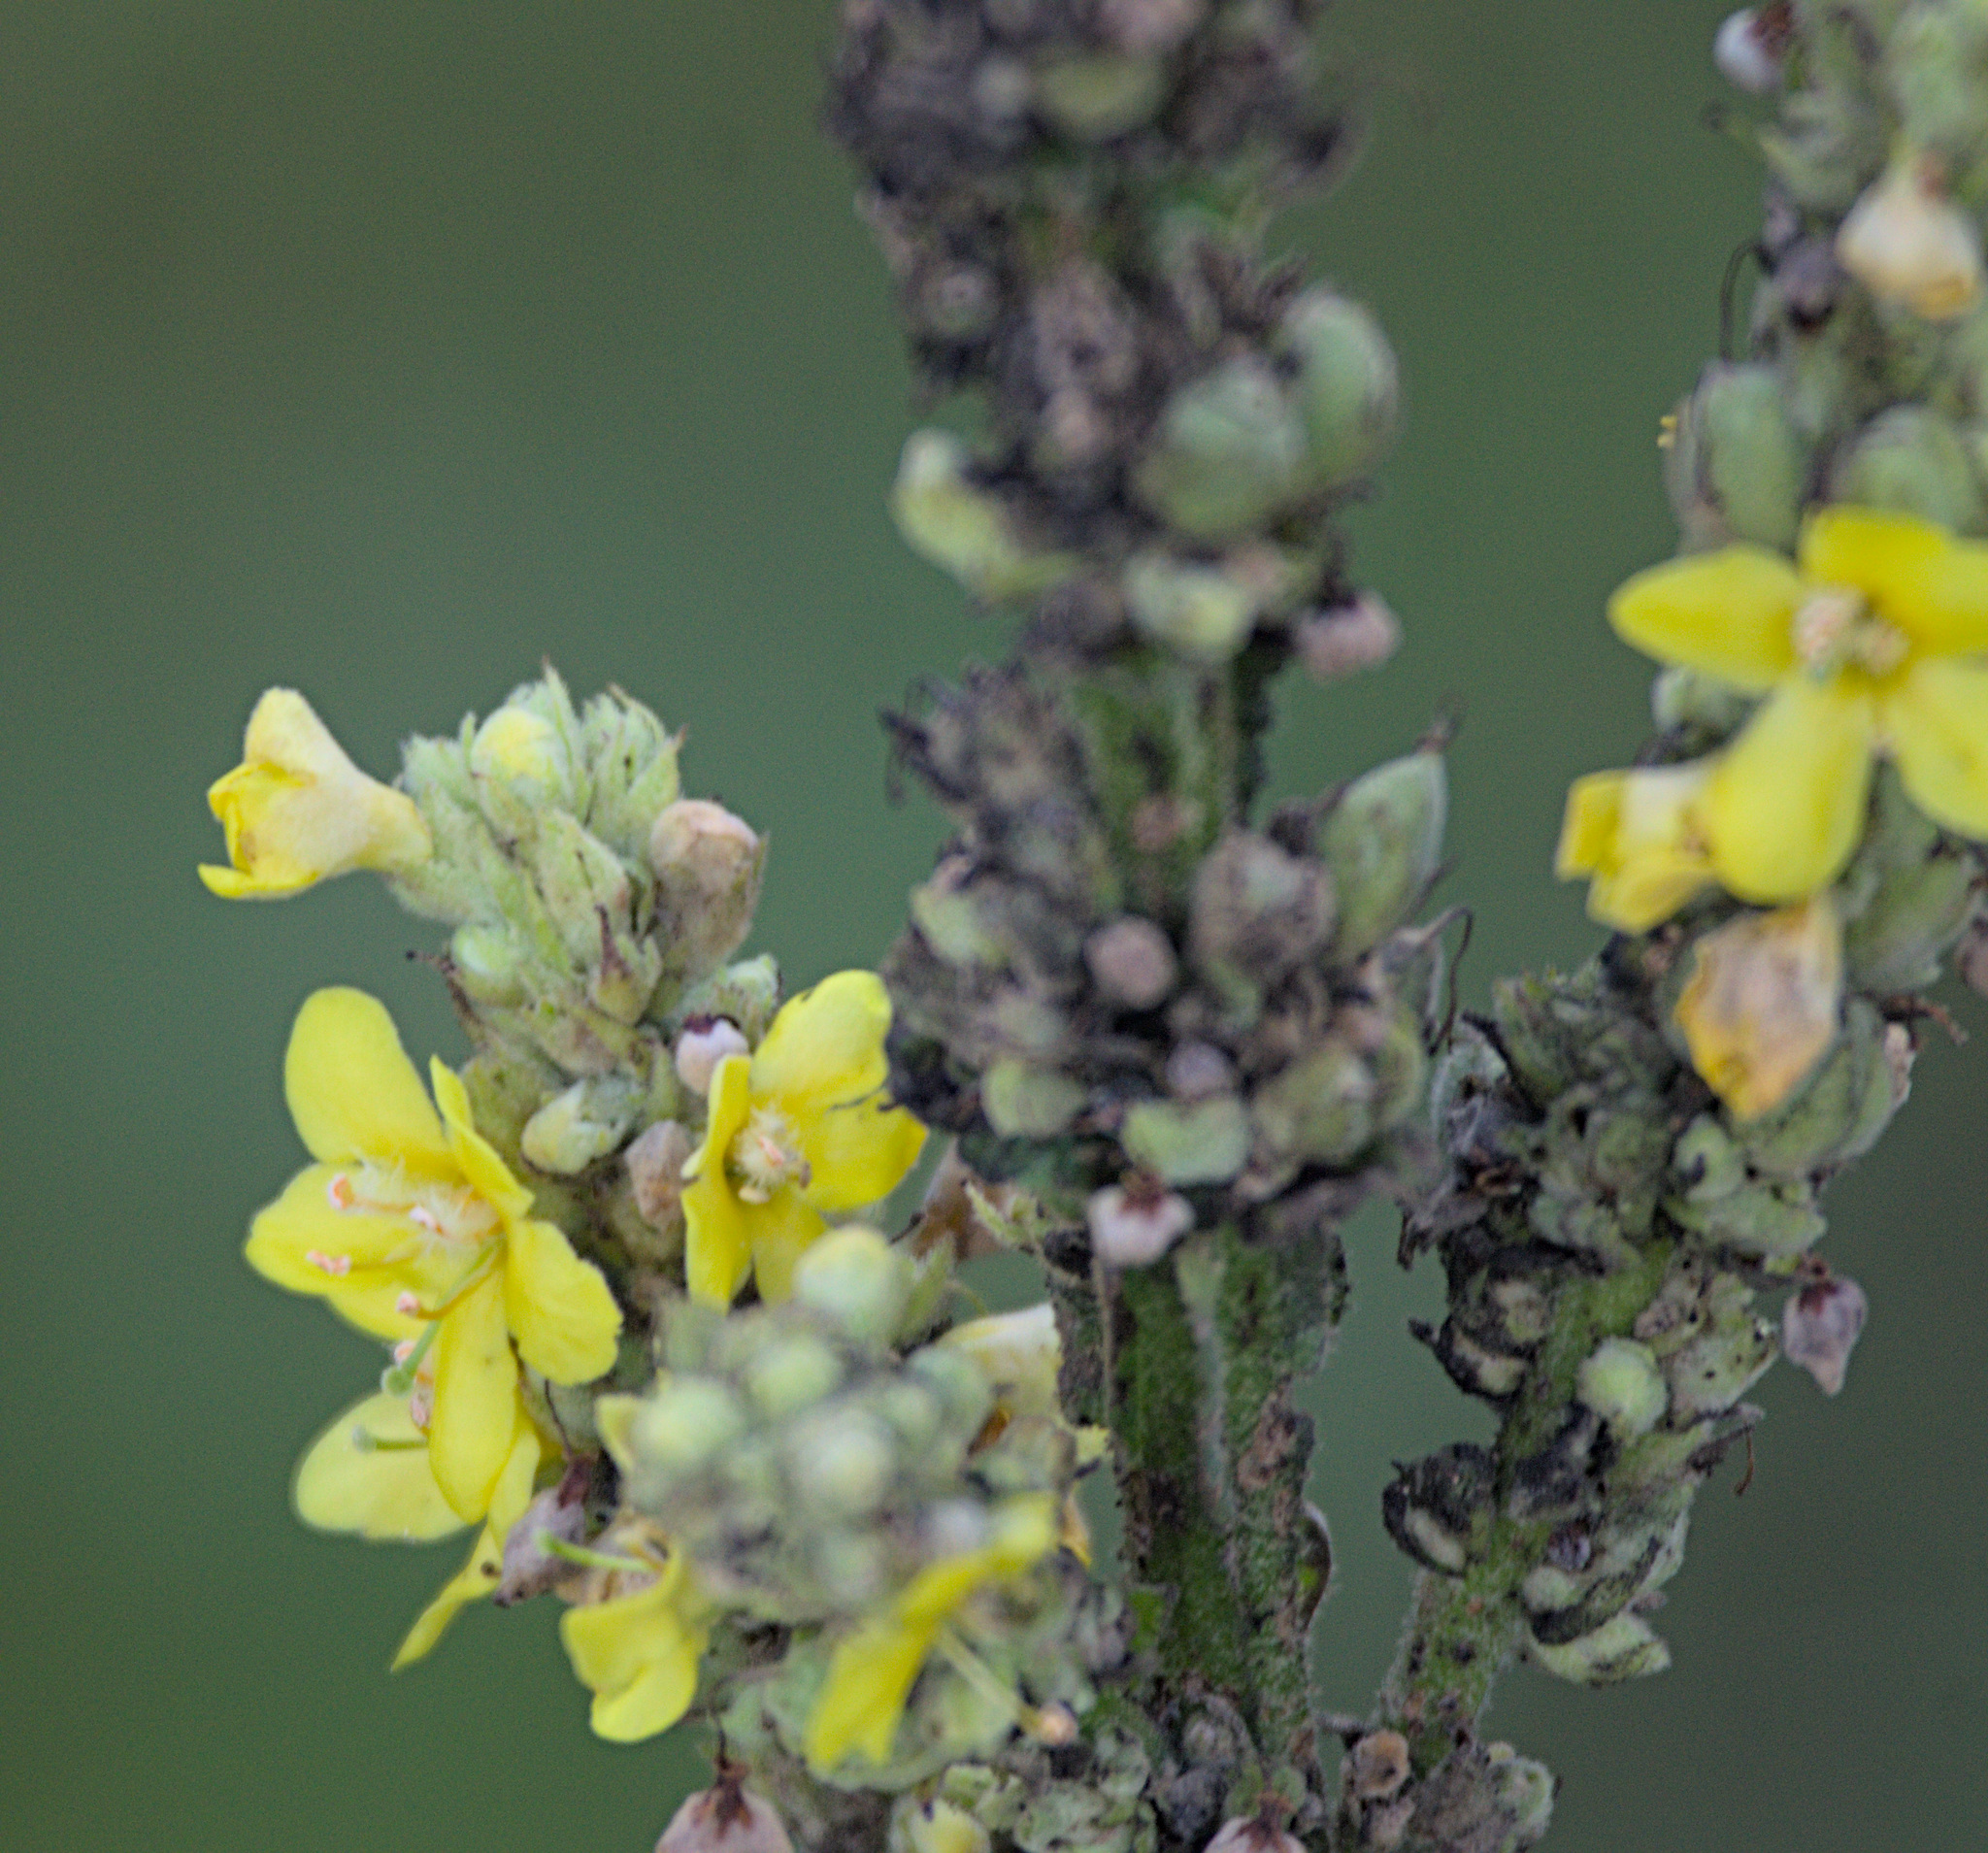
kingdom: Plantae
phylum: Tracheophyta
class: Magnoliopsida
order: Lamiales
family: Scrophulariaceae
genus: Verbascum
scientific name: Verbascum thapsus
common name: Common mullein
